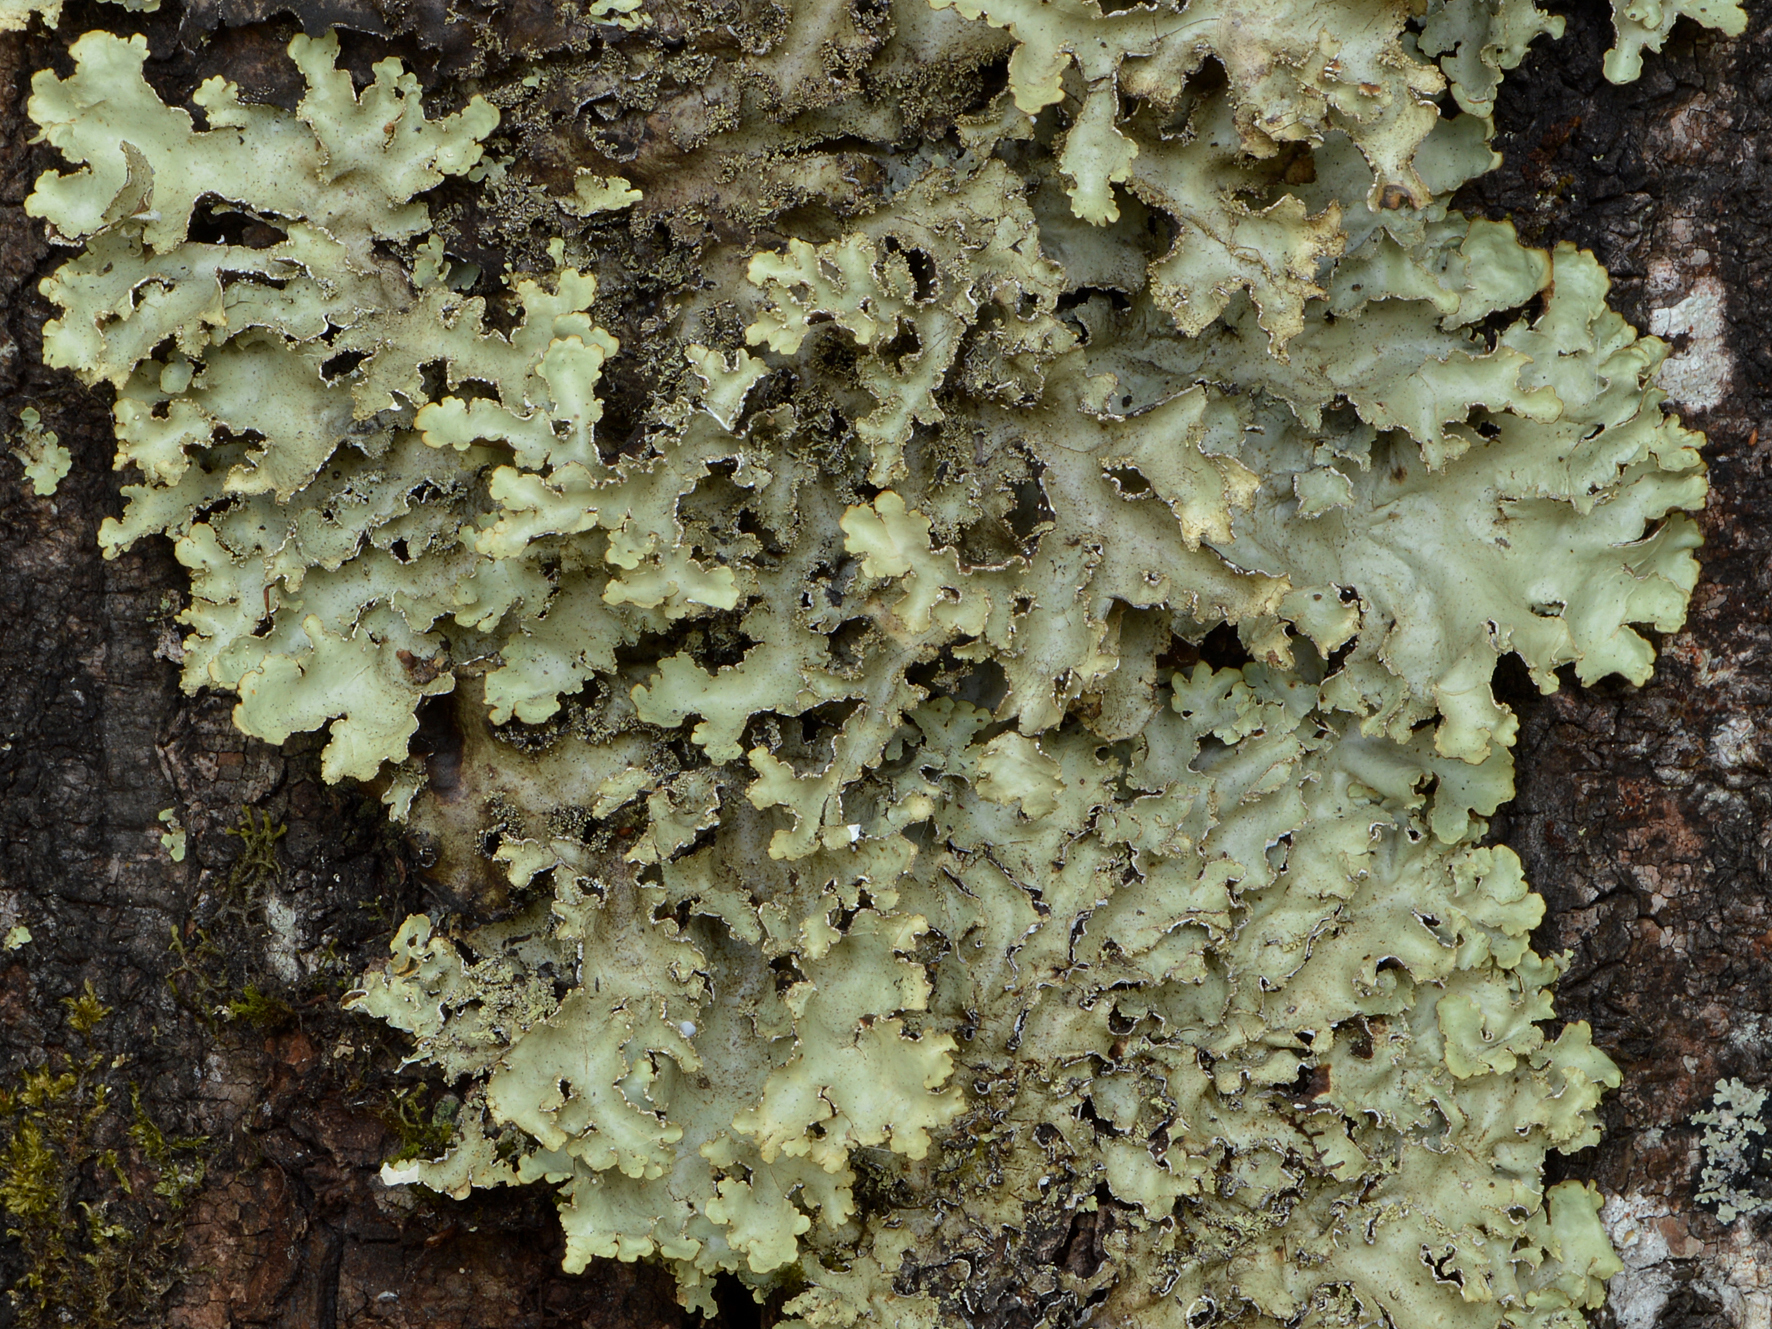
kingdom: Fungi
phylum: Ascomycota
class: Lecanoromycetes
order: Peltigerales
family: Lobariaceae
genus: Pseudocyphellaria
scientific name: Pseudocyphellaria glabra
